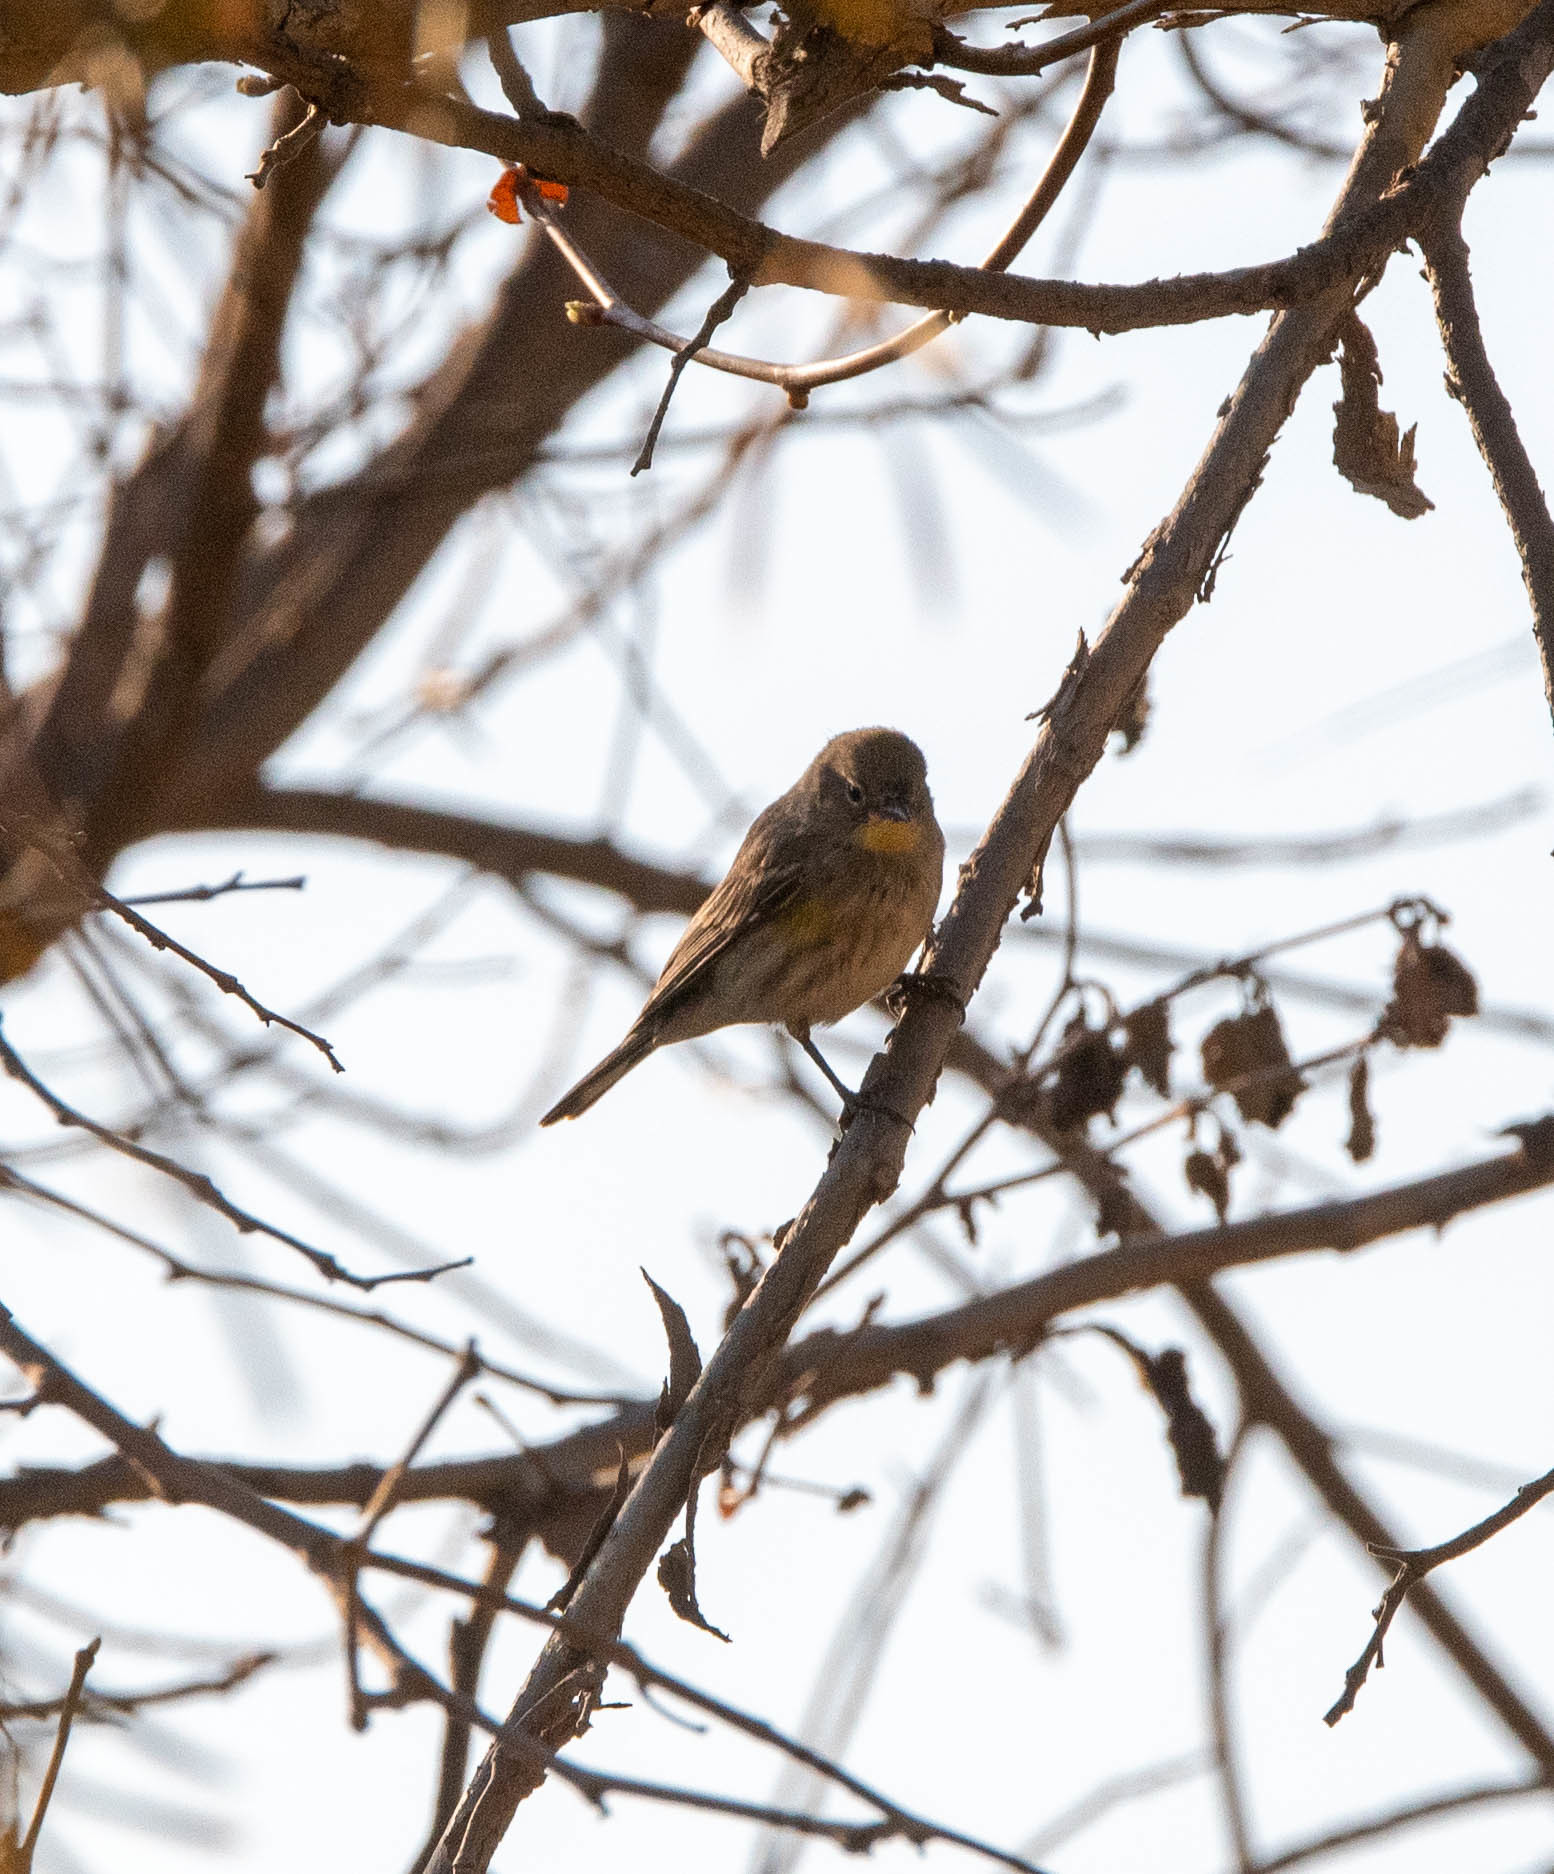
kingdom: Animalia
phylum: Chordata
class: Aves
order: Passeriformes
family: Parulidae
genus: Setophaga
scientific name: Setophaga auduboni
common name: Audubon's warbler
